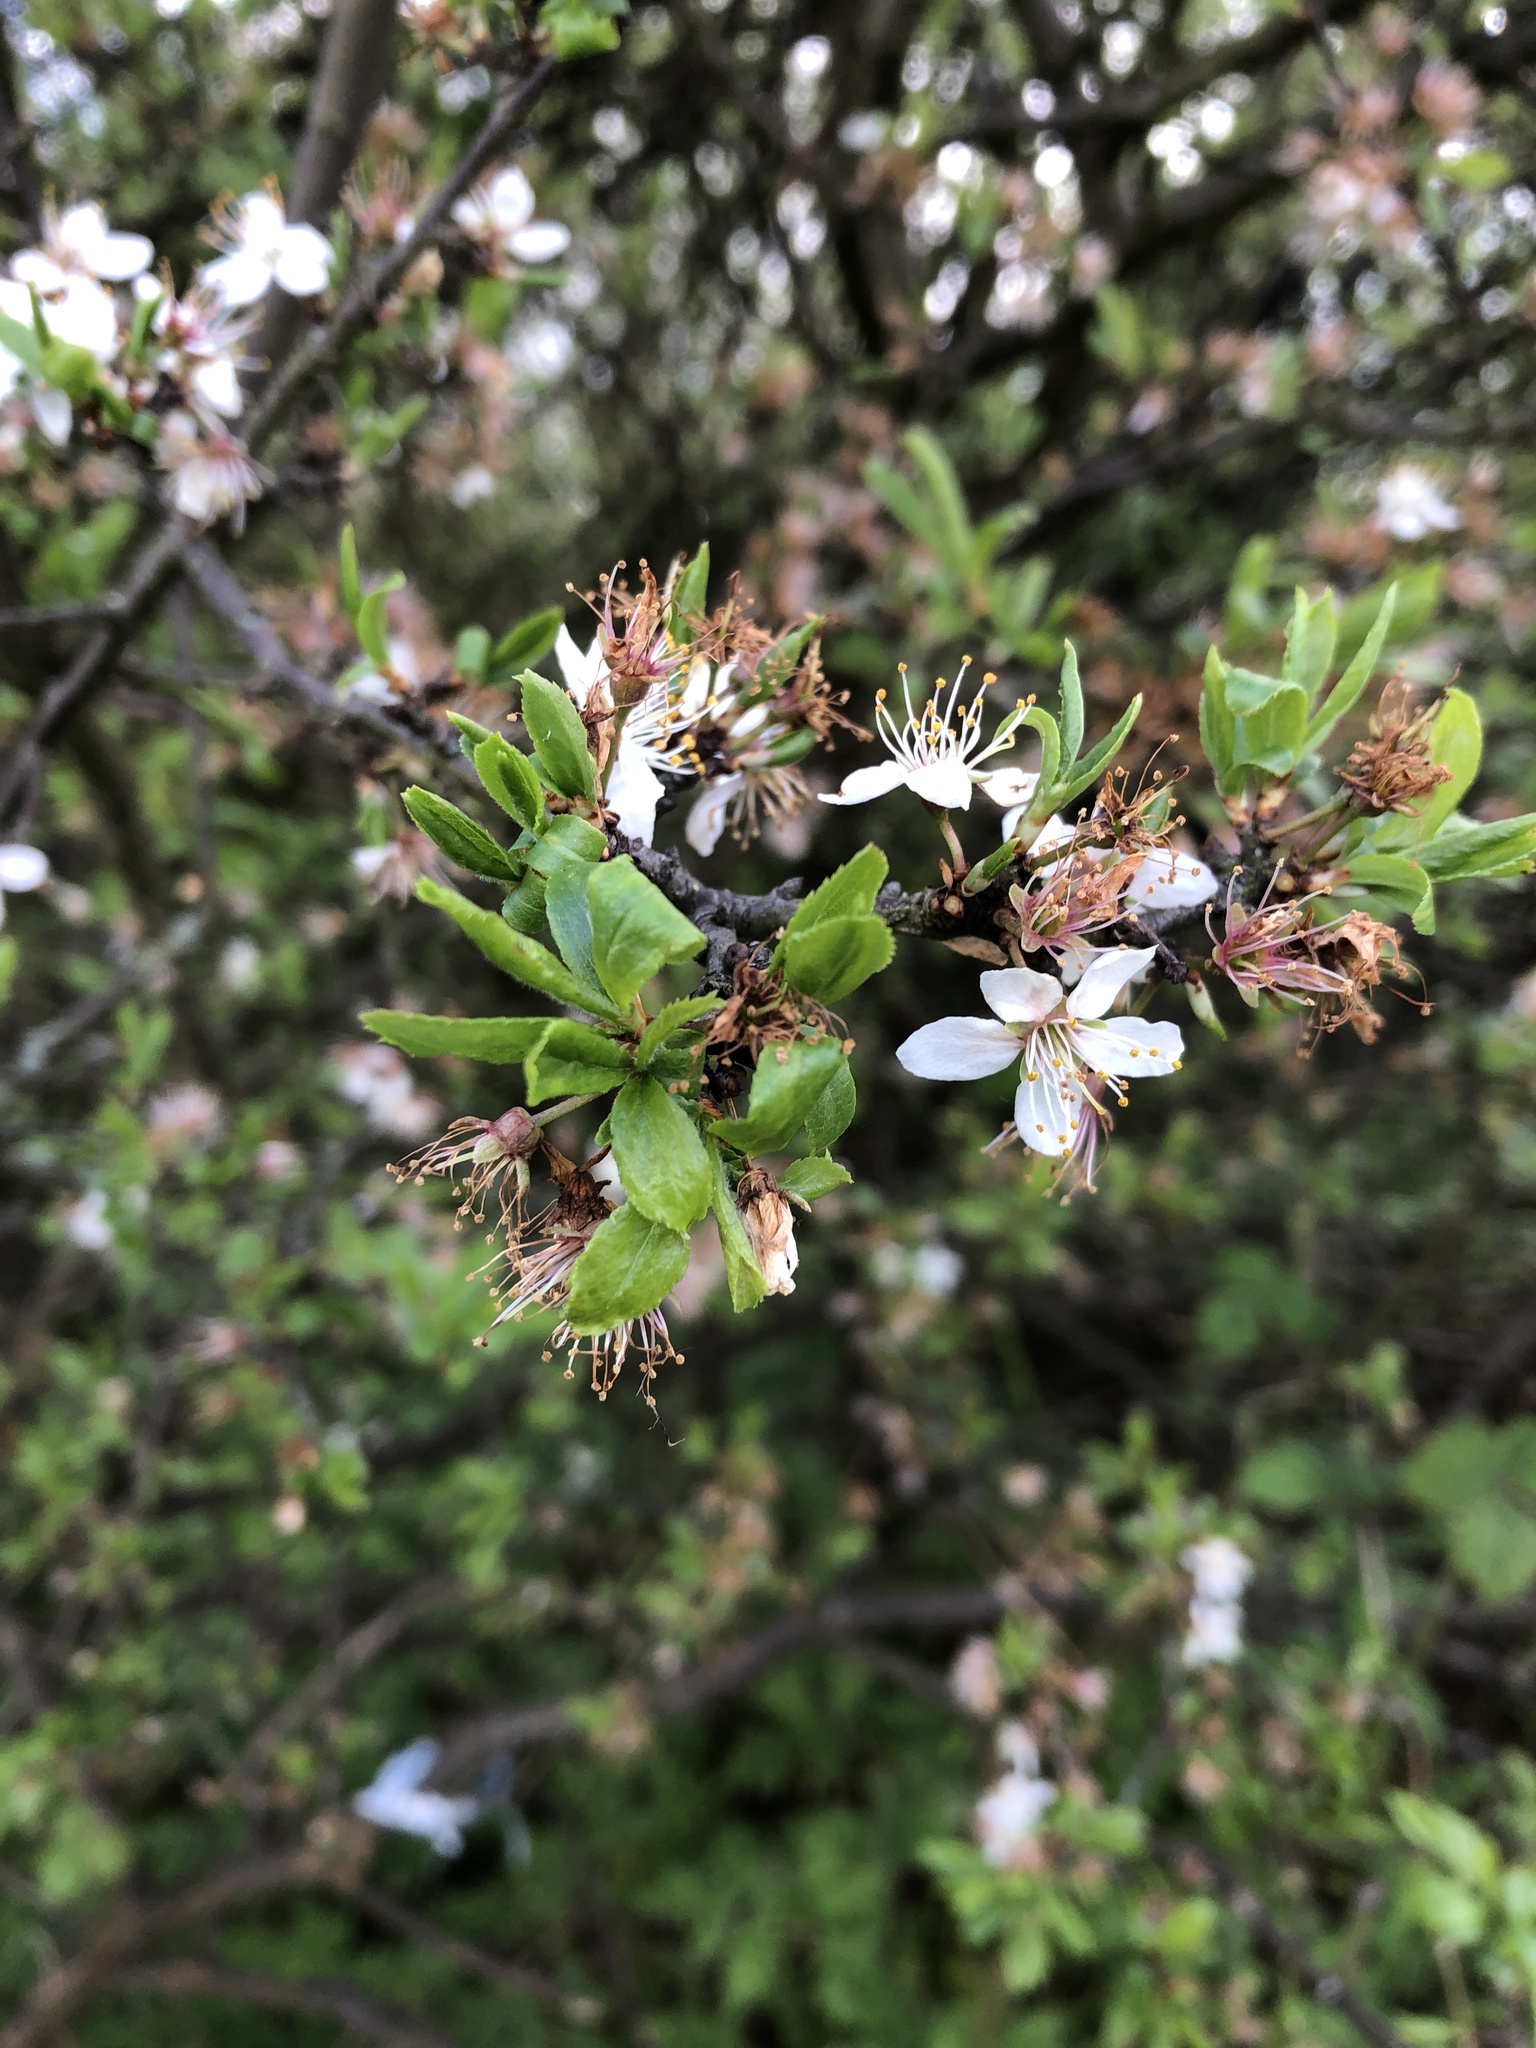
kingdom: Plantae
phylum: Tracheophyta
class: Magnoliopsida
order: Rosales
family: Rosaceae
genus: Prunus
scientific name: Prunus spinosa
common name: Blackthorn
